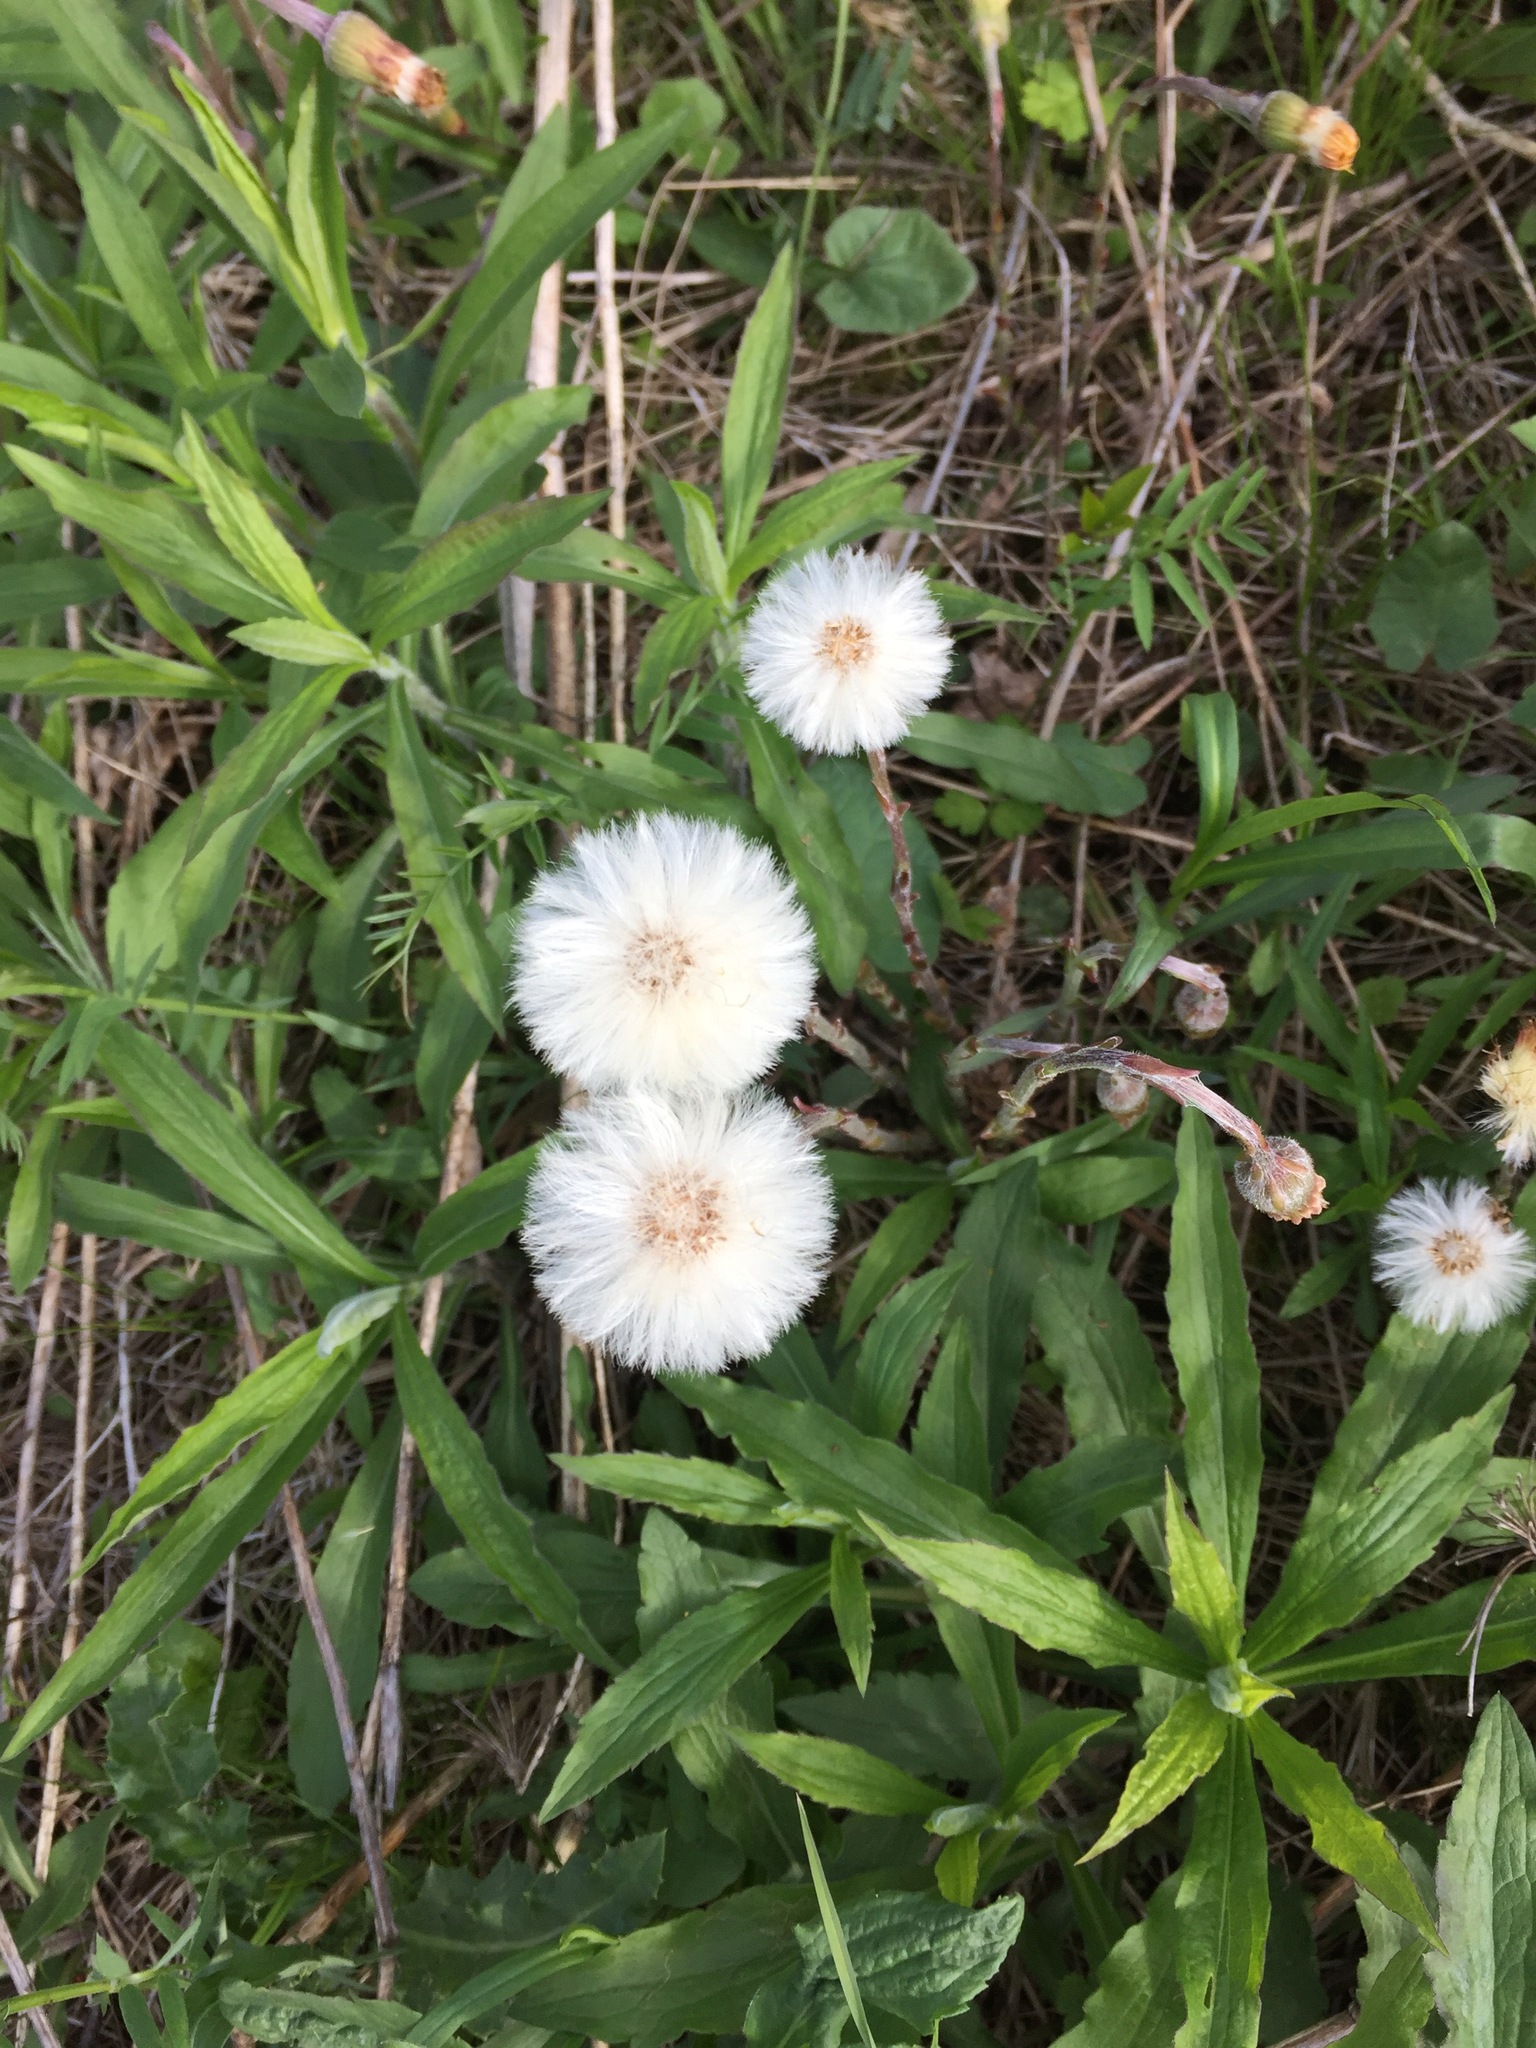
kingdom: Plantae
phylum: Tracheophyta
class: Magnoliopsida
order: Asterales
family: Asteraceae
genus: Tussilago
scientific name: Tussilago farfara
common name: Coltsfoot
